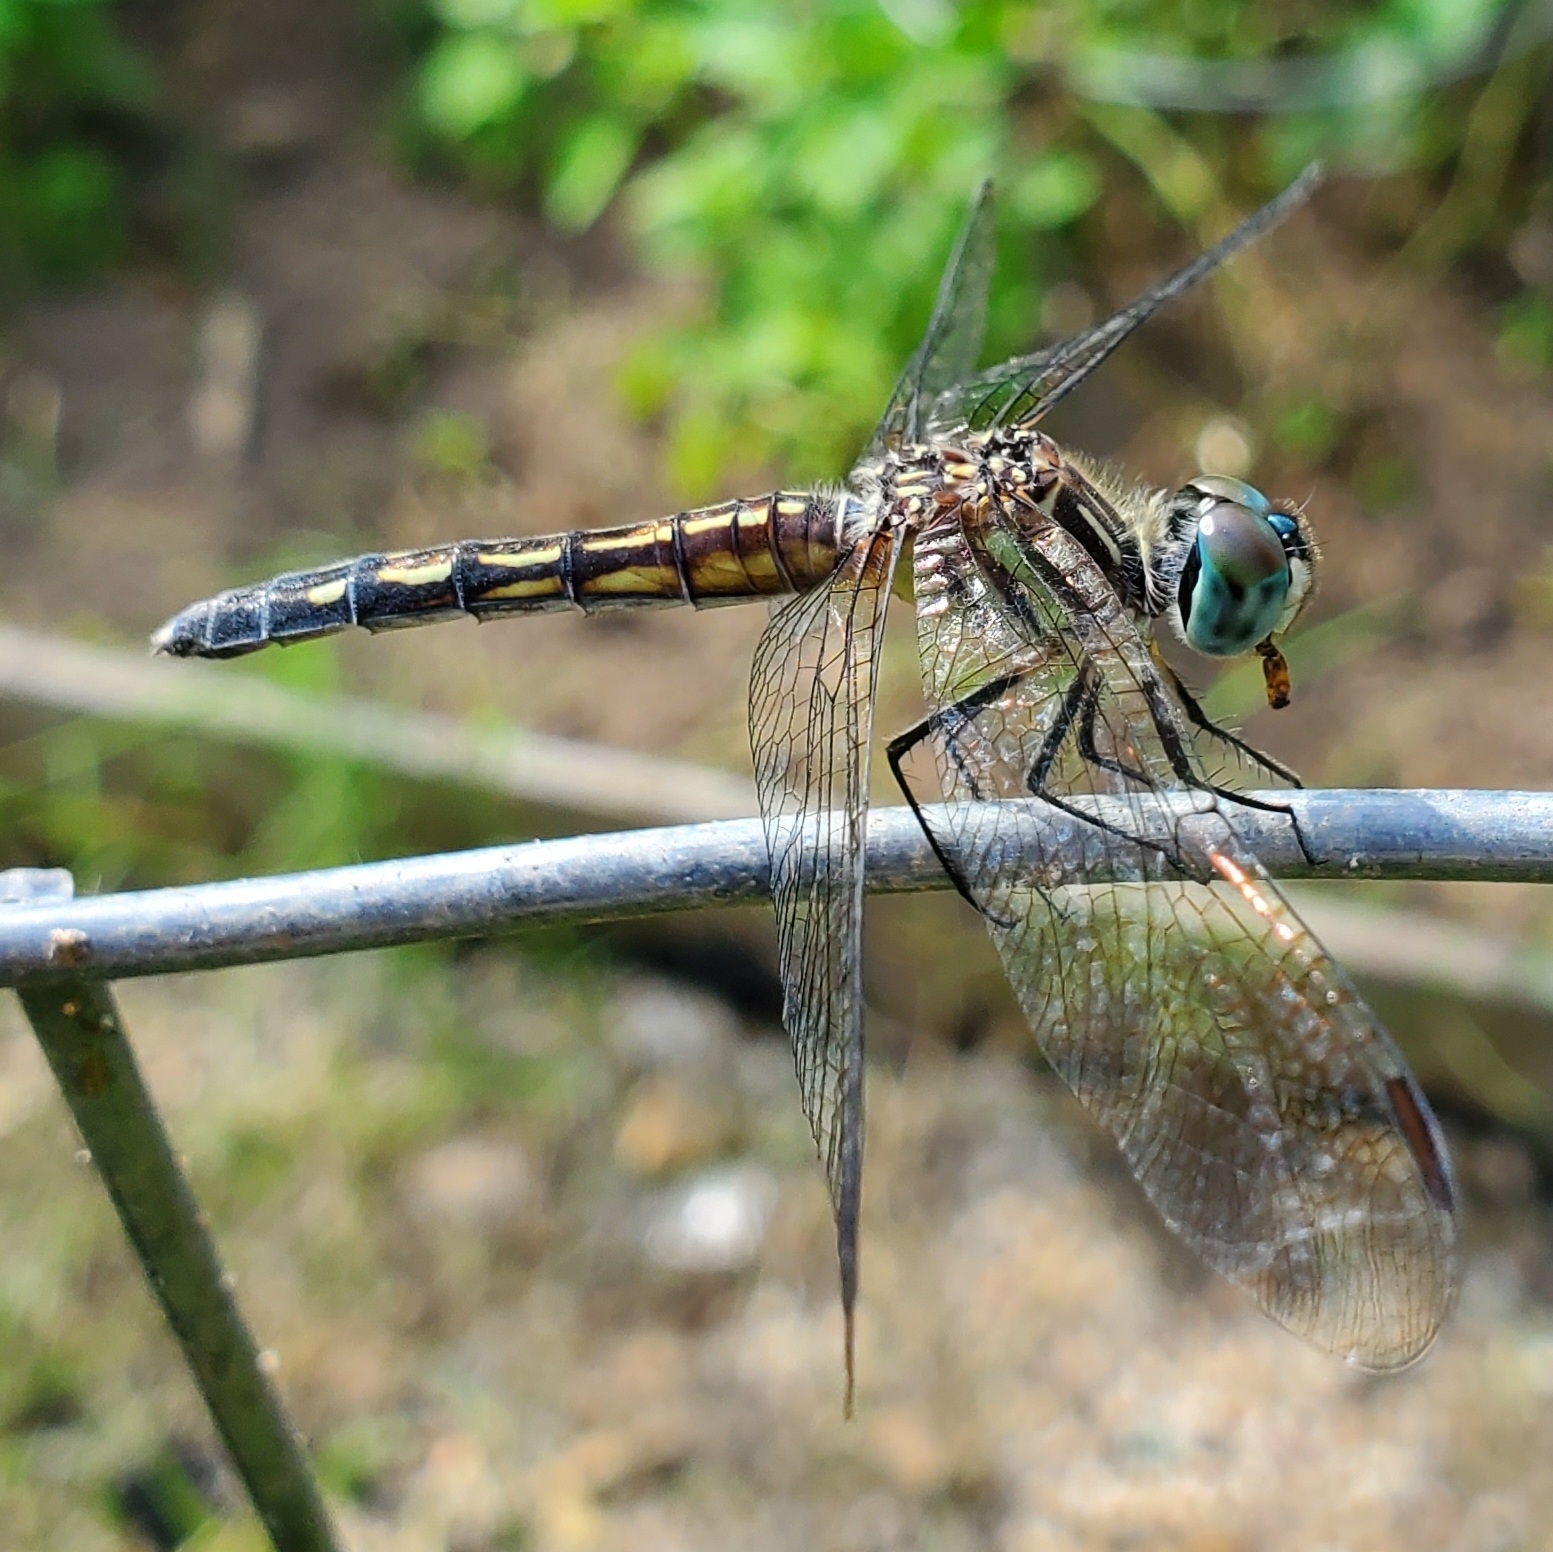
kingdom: Animalia
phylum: Arthropoda
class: Insecta
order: Odonata
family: Libellulidae
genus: Pachydiplax
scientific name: Pachydiplax longipennis
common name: Blue dasher
